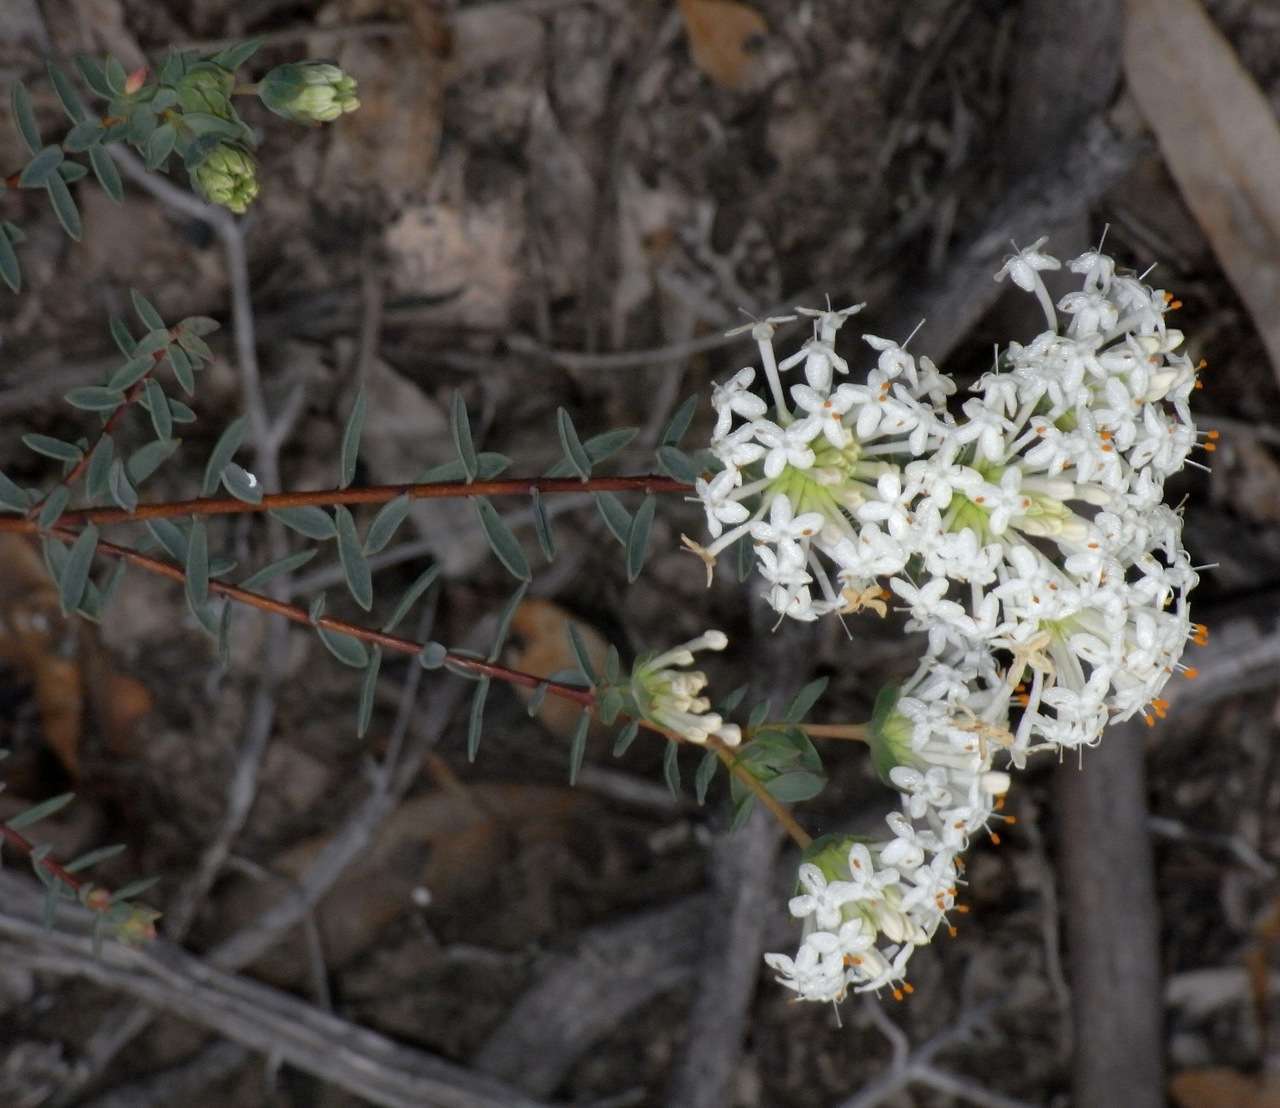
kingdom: Plantae
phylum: Tracheophyta
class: Magnoliopsida
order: Malvales
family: Thymelaeaceae
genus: Pimelea
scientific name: Pimelea linifolia
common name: Queen-of-the-bush
